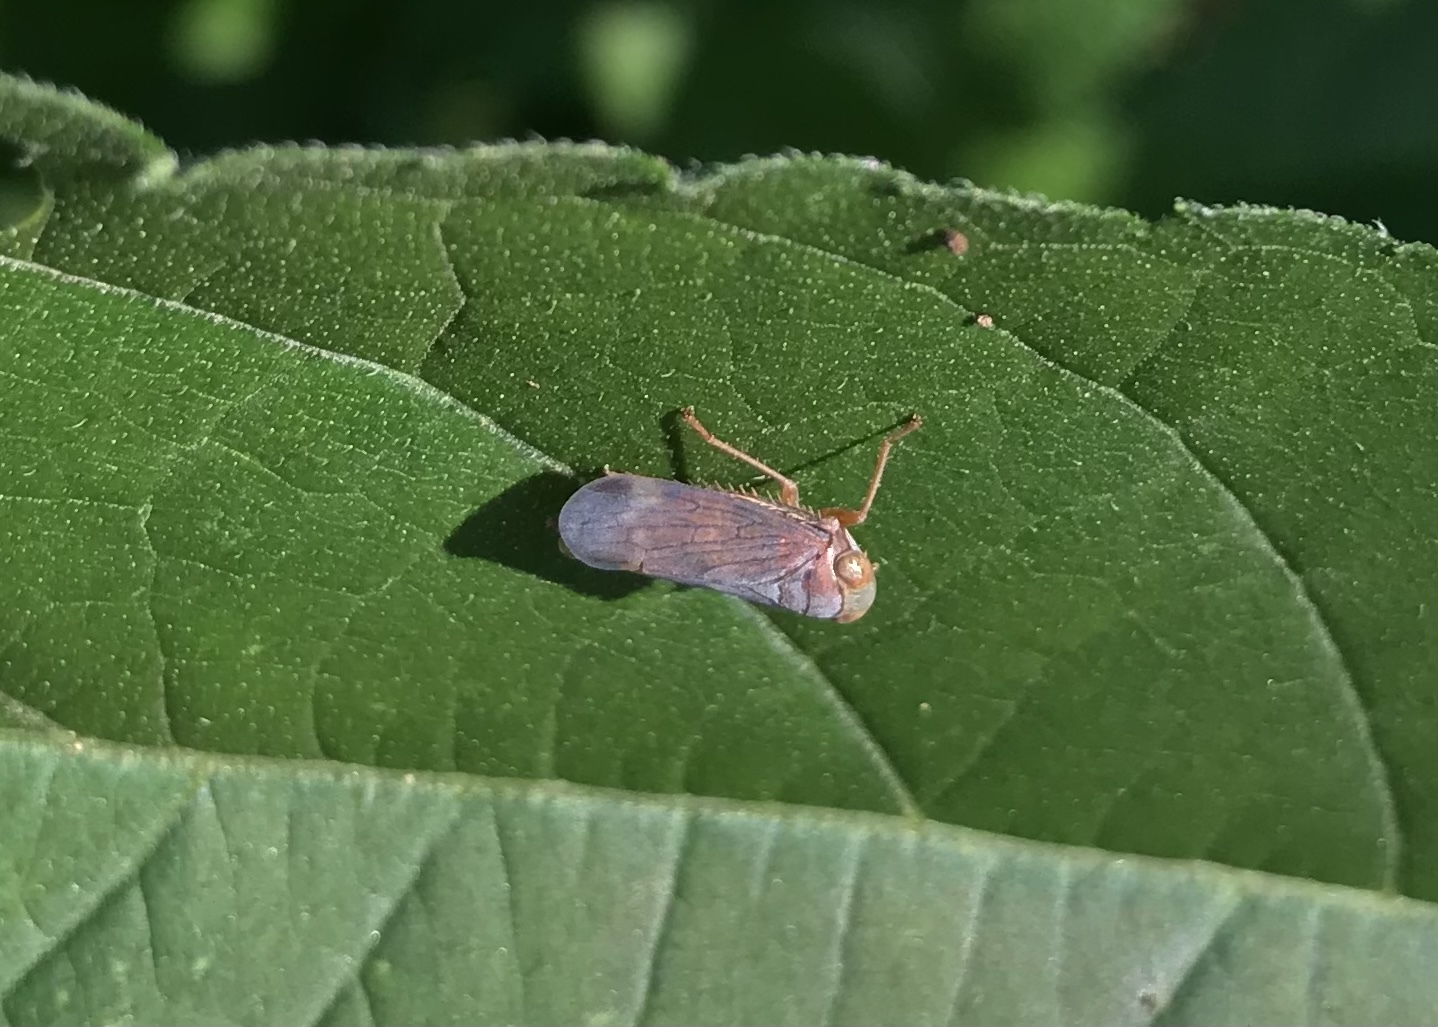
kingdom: Animalia
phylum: Arthropoda
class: Insecta
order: Hemiptera
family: Cicadellidae
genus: Jikradia
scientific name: Jikradia olitoria
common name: Coppery leafhopper
